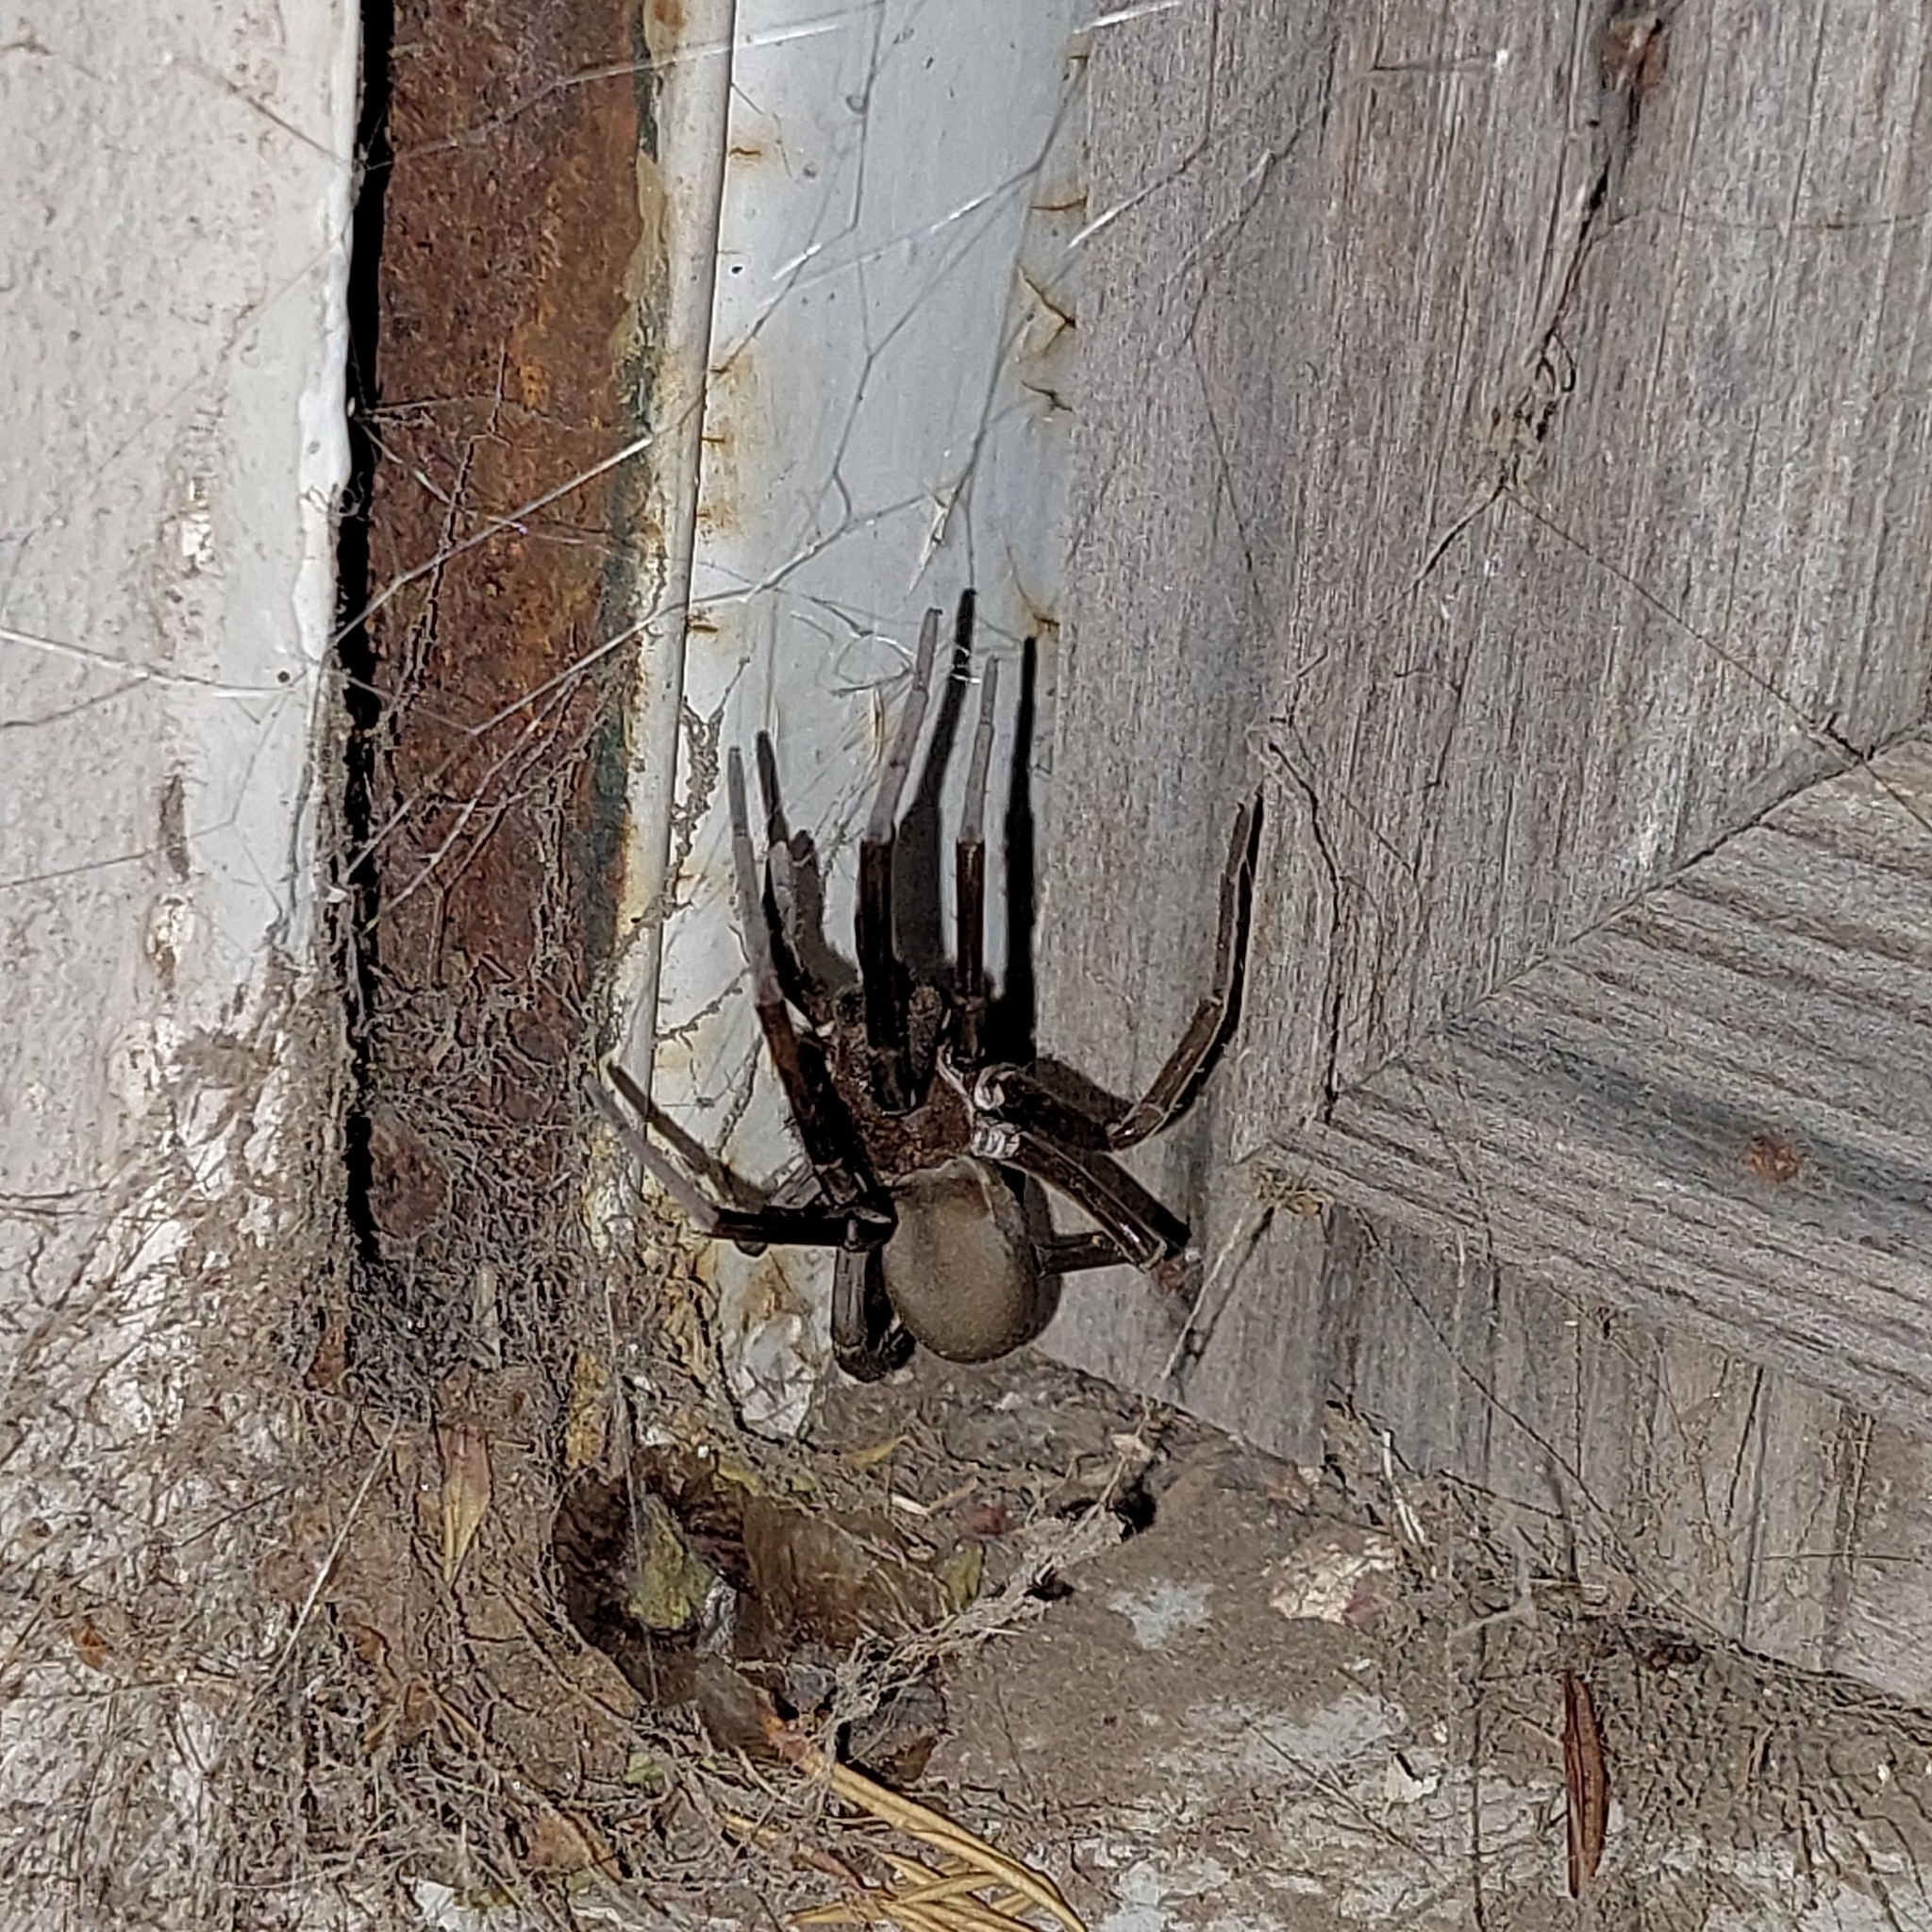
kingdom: Animalia
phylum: Arthropoda
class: Arachnida
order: Araneae
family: Filistatidae
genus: Kukulcania
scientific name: Kukulcania hibernalis
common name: Crevice weaver
